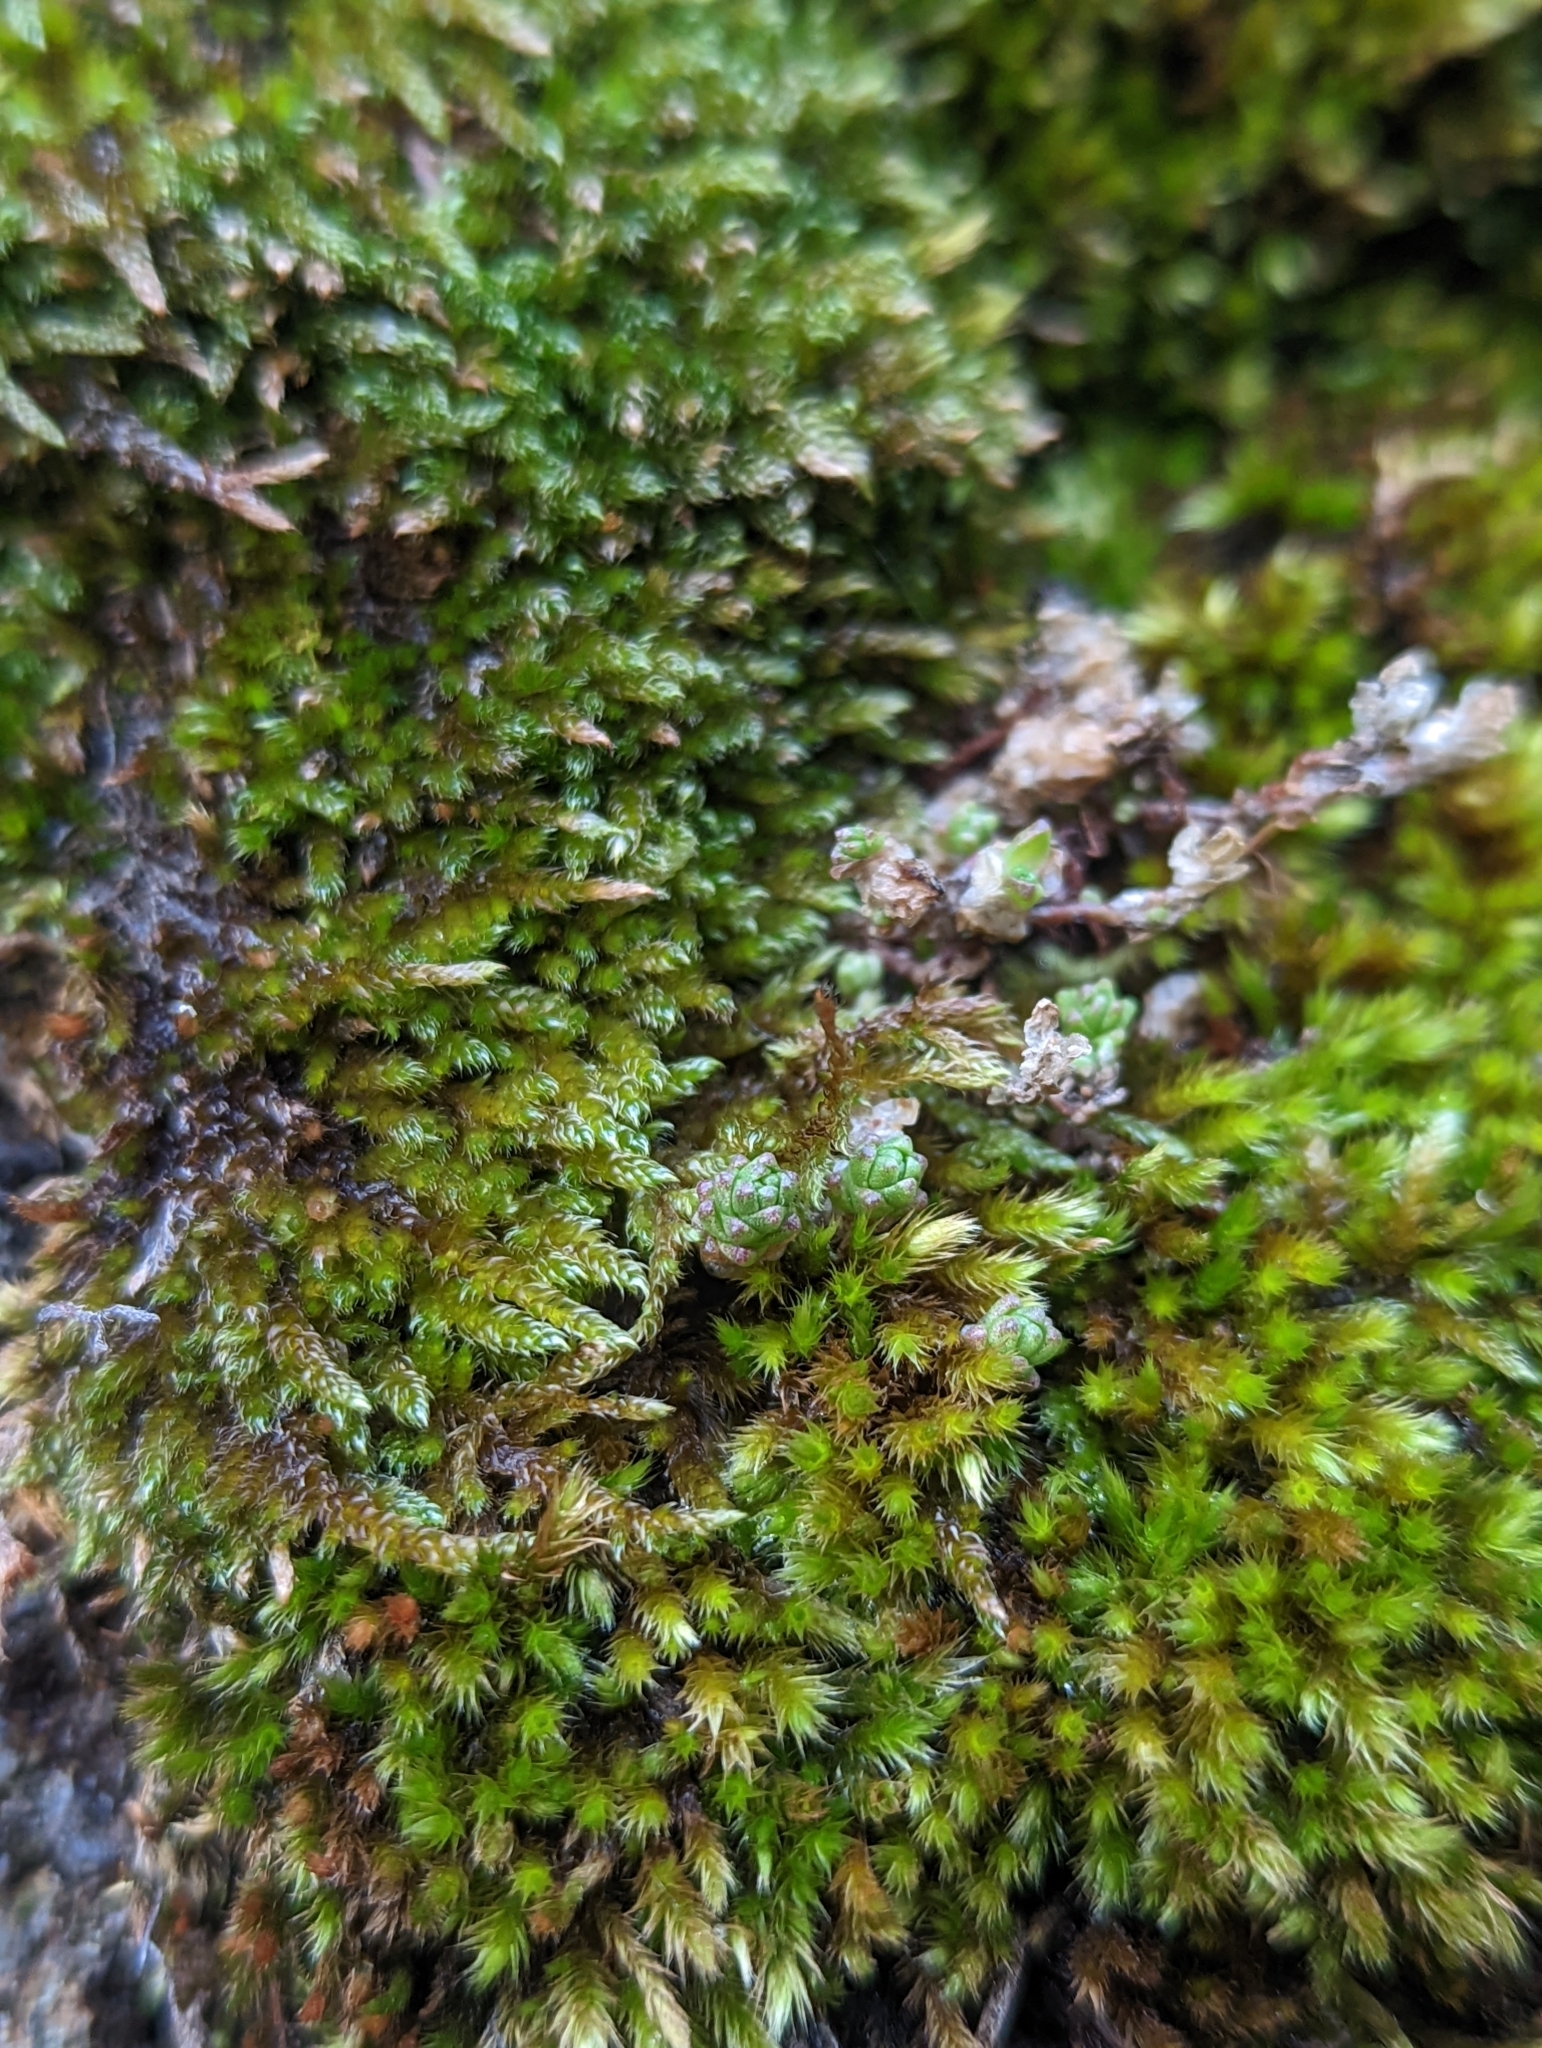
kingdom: Plantae
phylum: Tracheophyta
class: Magnoliopsida
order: Saxifragales
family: Crassulaceae
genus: Sedum
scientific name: Sedum acre
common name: Biting stonecrop
